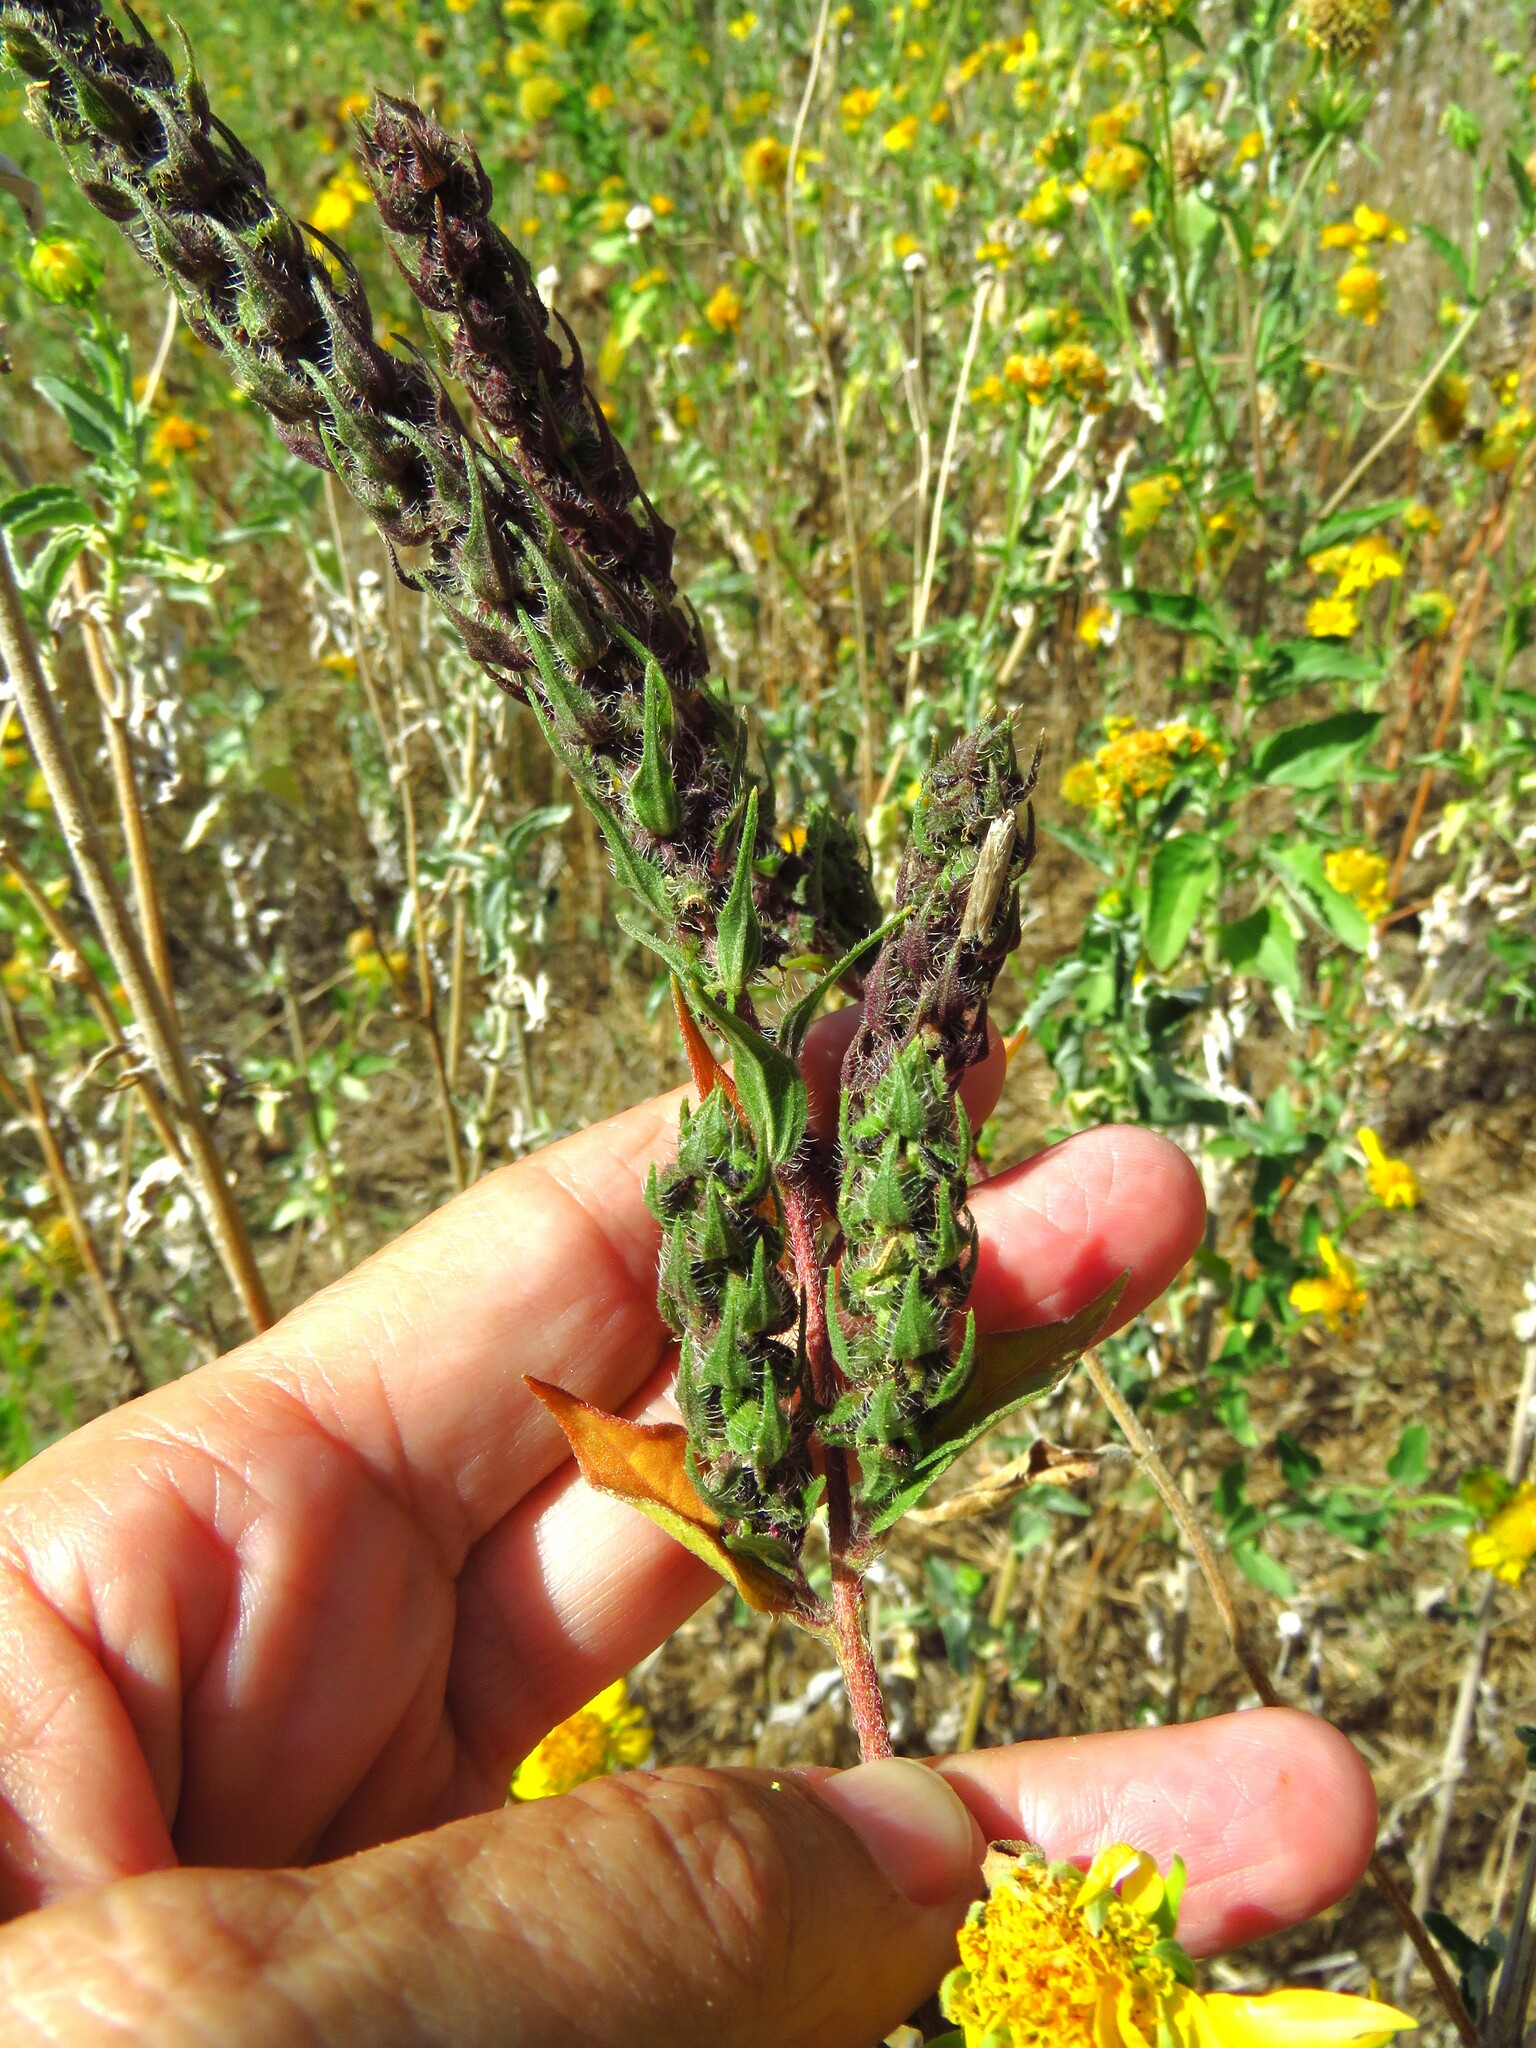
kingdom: Plantae
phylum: Tracheophyta
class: Magnoliopsida
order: Asterales
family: Asteraceae
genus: Iva
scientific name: Iva annua
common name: Marsh-elder
